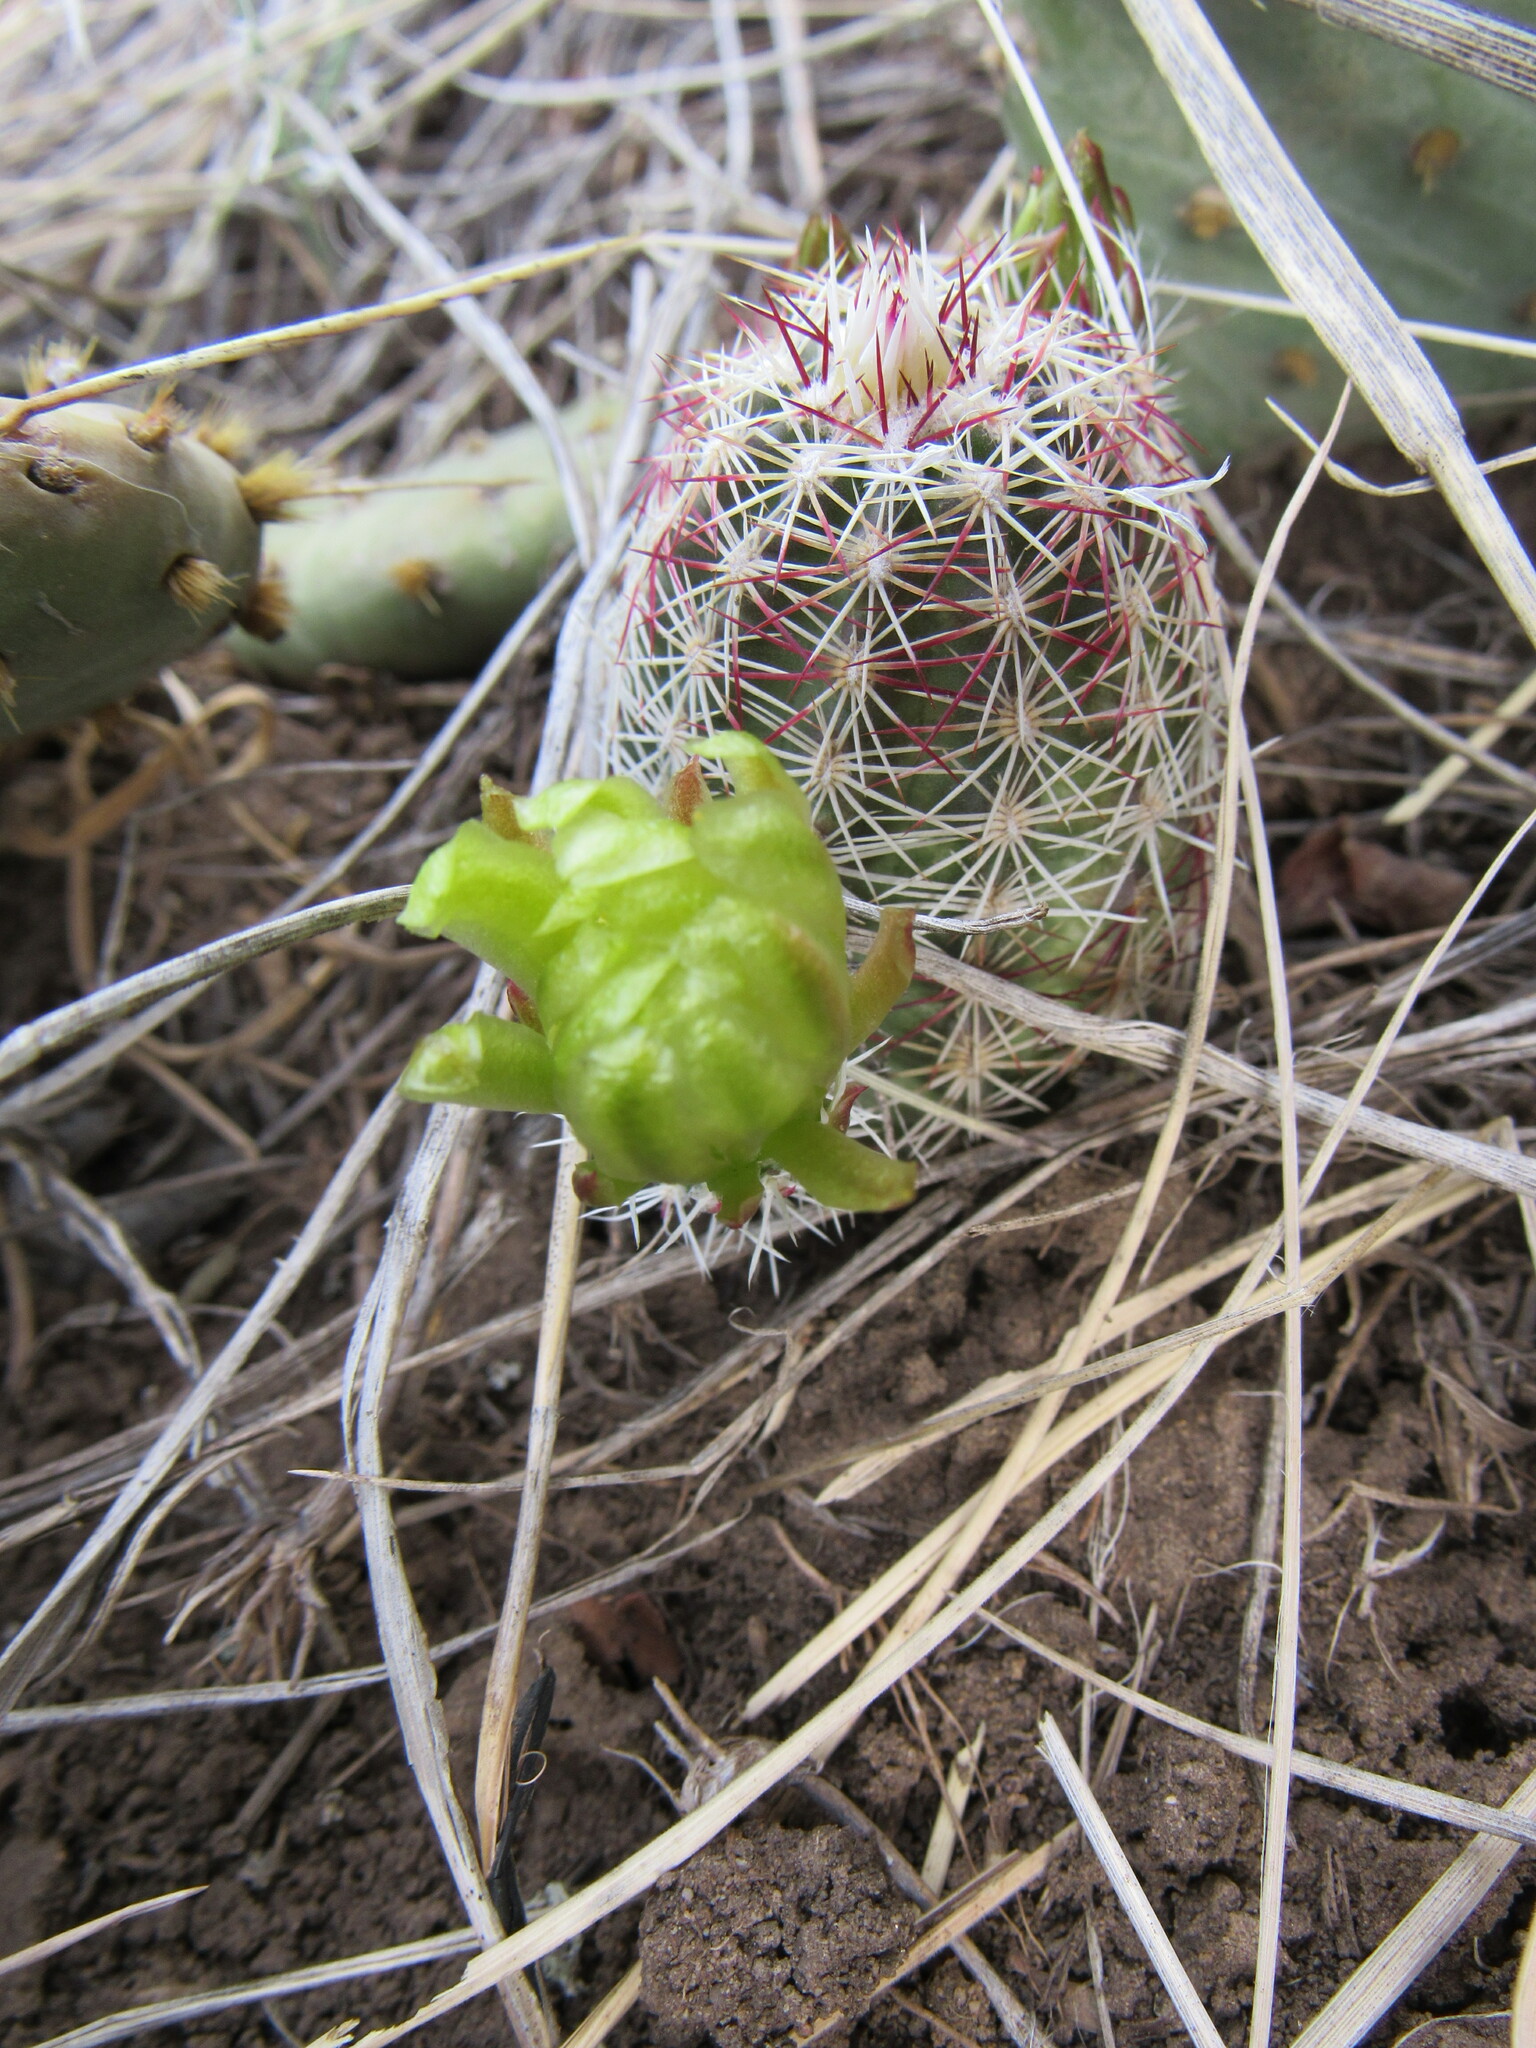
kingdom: Plantae
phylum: Tracheophyta
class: Magnoliopsida
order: Caryophyllales
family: Cactaceae
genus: Echinocereus
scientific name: Echinocereus viridiflorus
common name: Nylon hedgehog cactus
